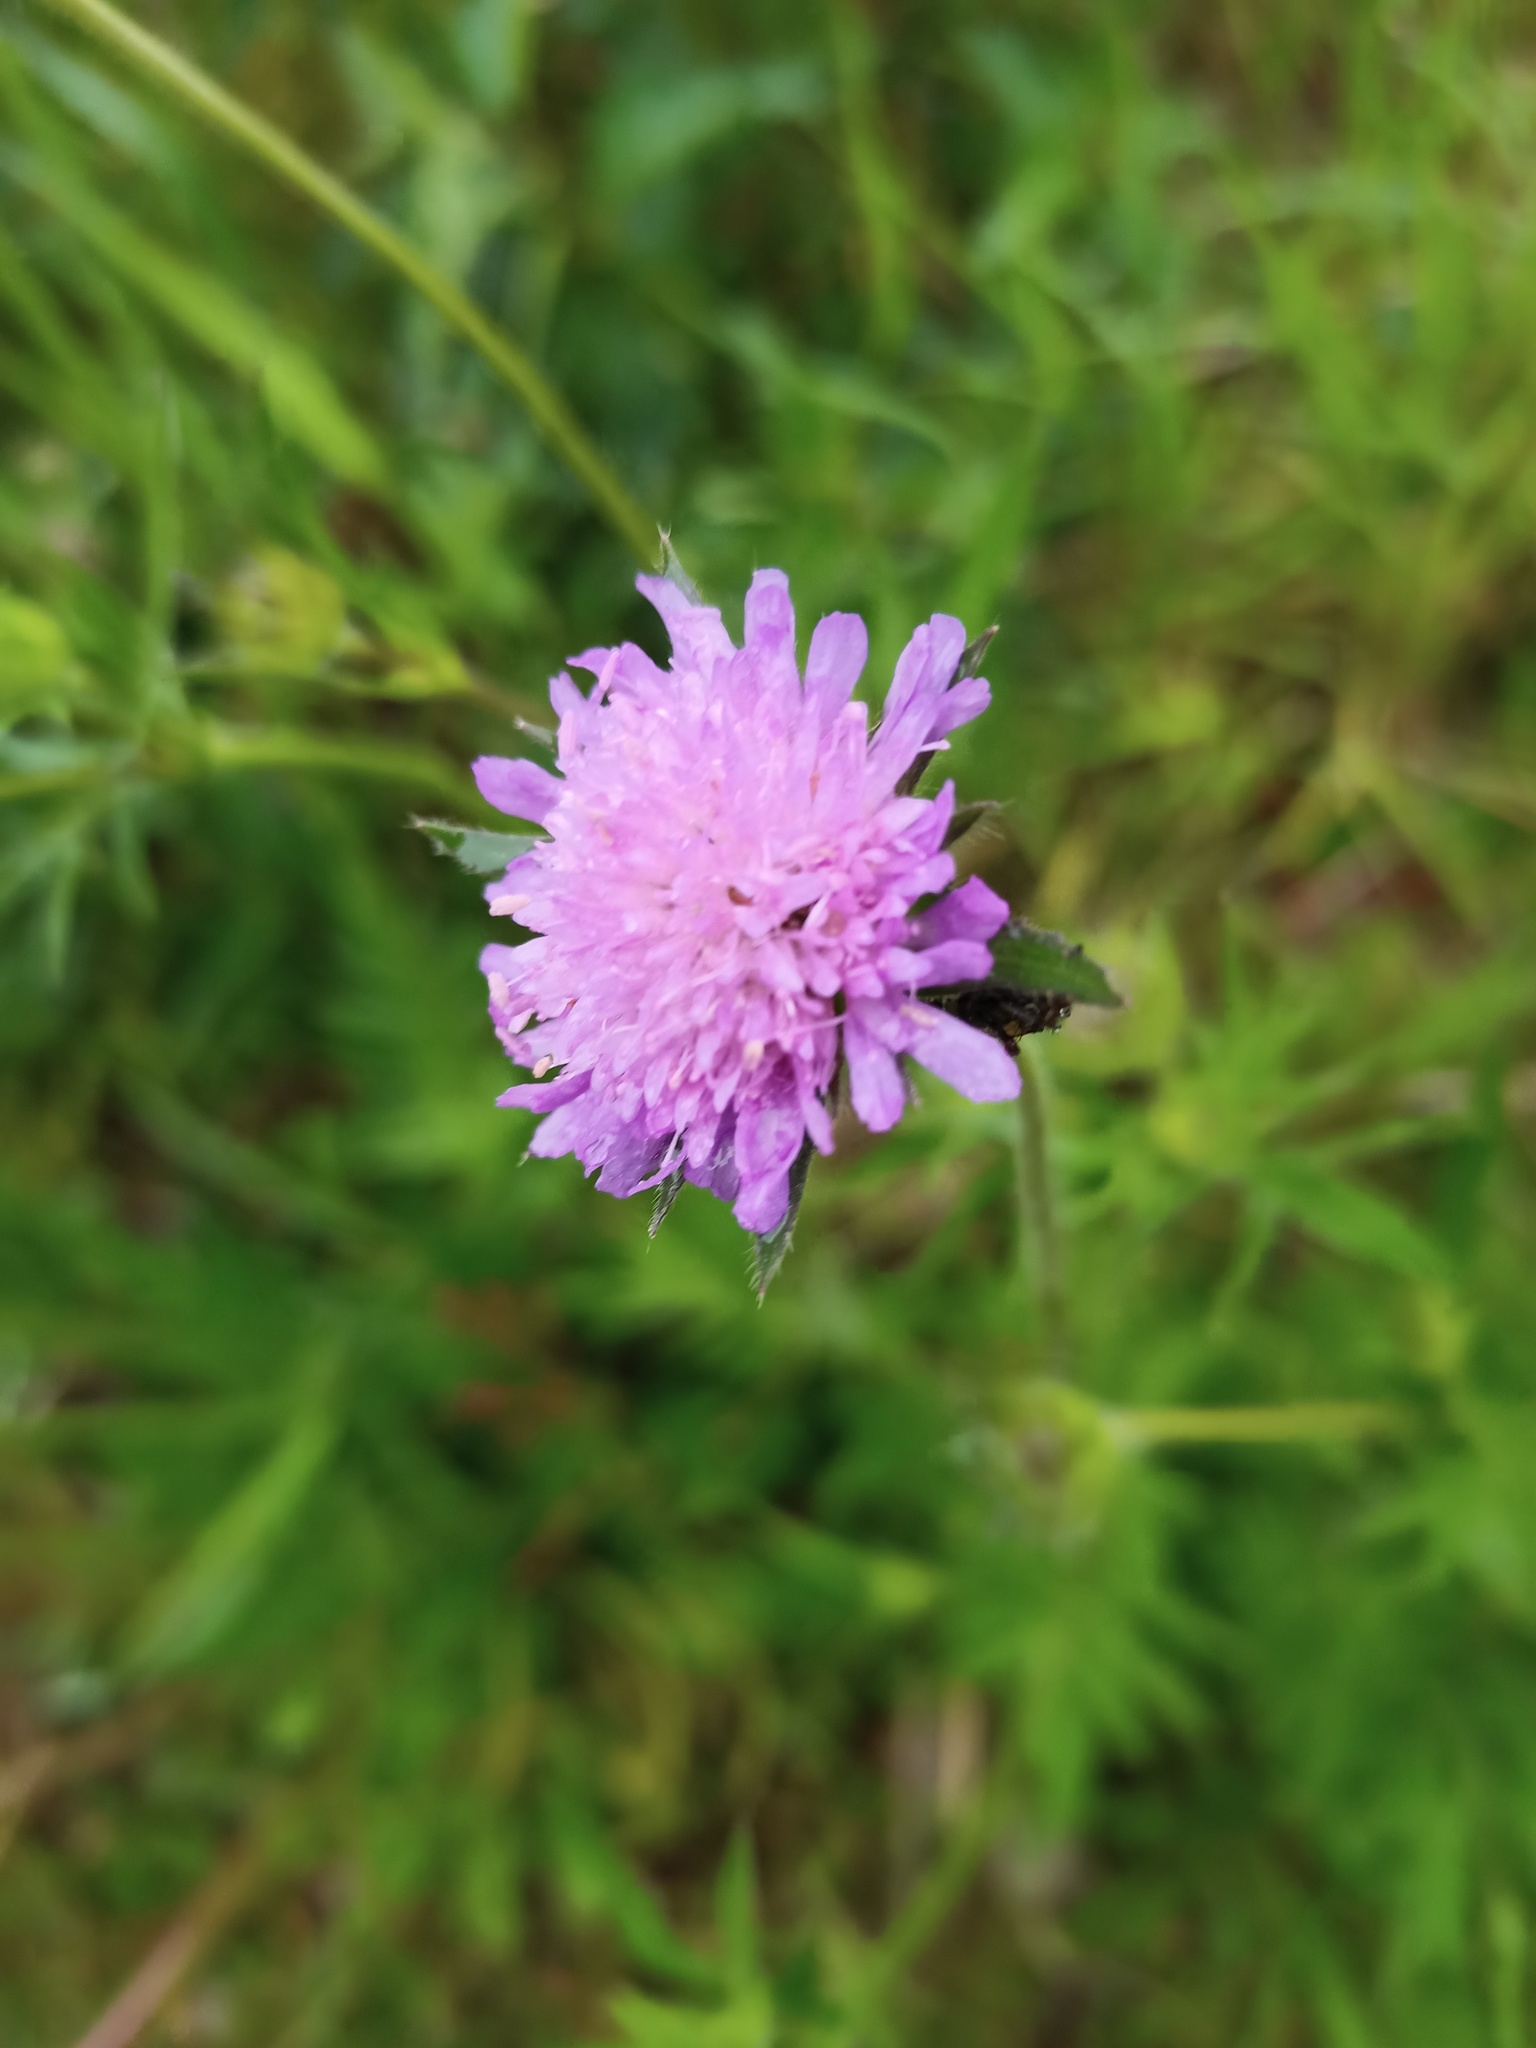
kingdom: Plantae
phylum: Tracheophyta
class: Magnoliopsida
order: Dipsacales
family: Caprifoliaceae
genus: Knautia
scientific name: Knautia arvensis
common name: Field scabiosa
